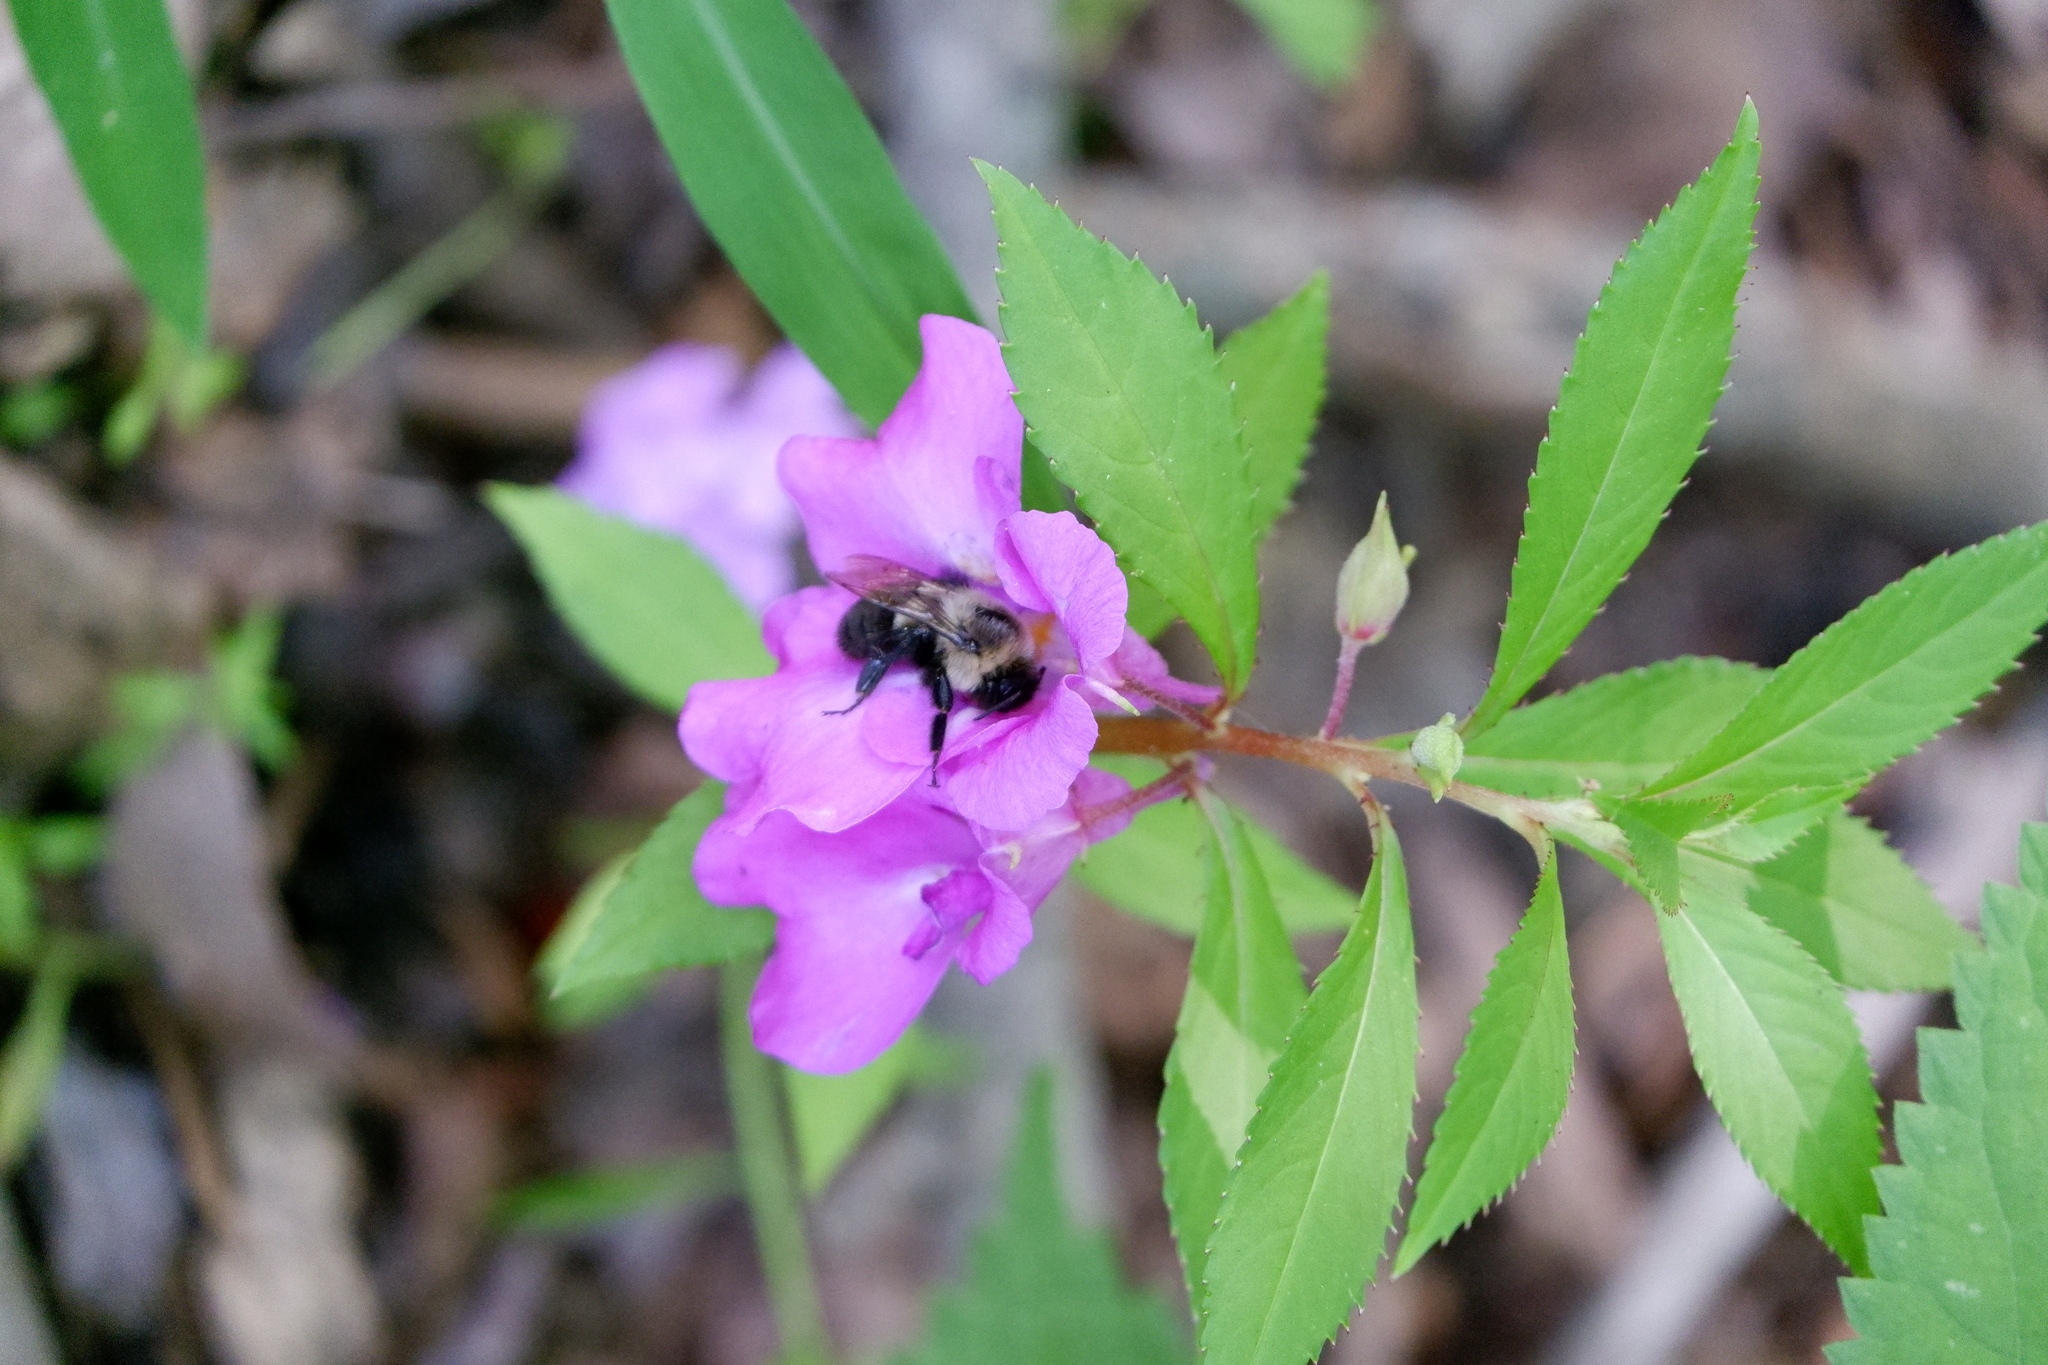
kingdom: Animalia
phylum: Arthropoda
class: Insecta
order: Hymenoptera
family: Apidae
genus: Bombus
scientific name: Bombus impatiens
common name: Common eastern bumble bee
